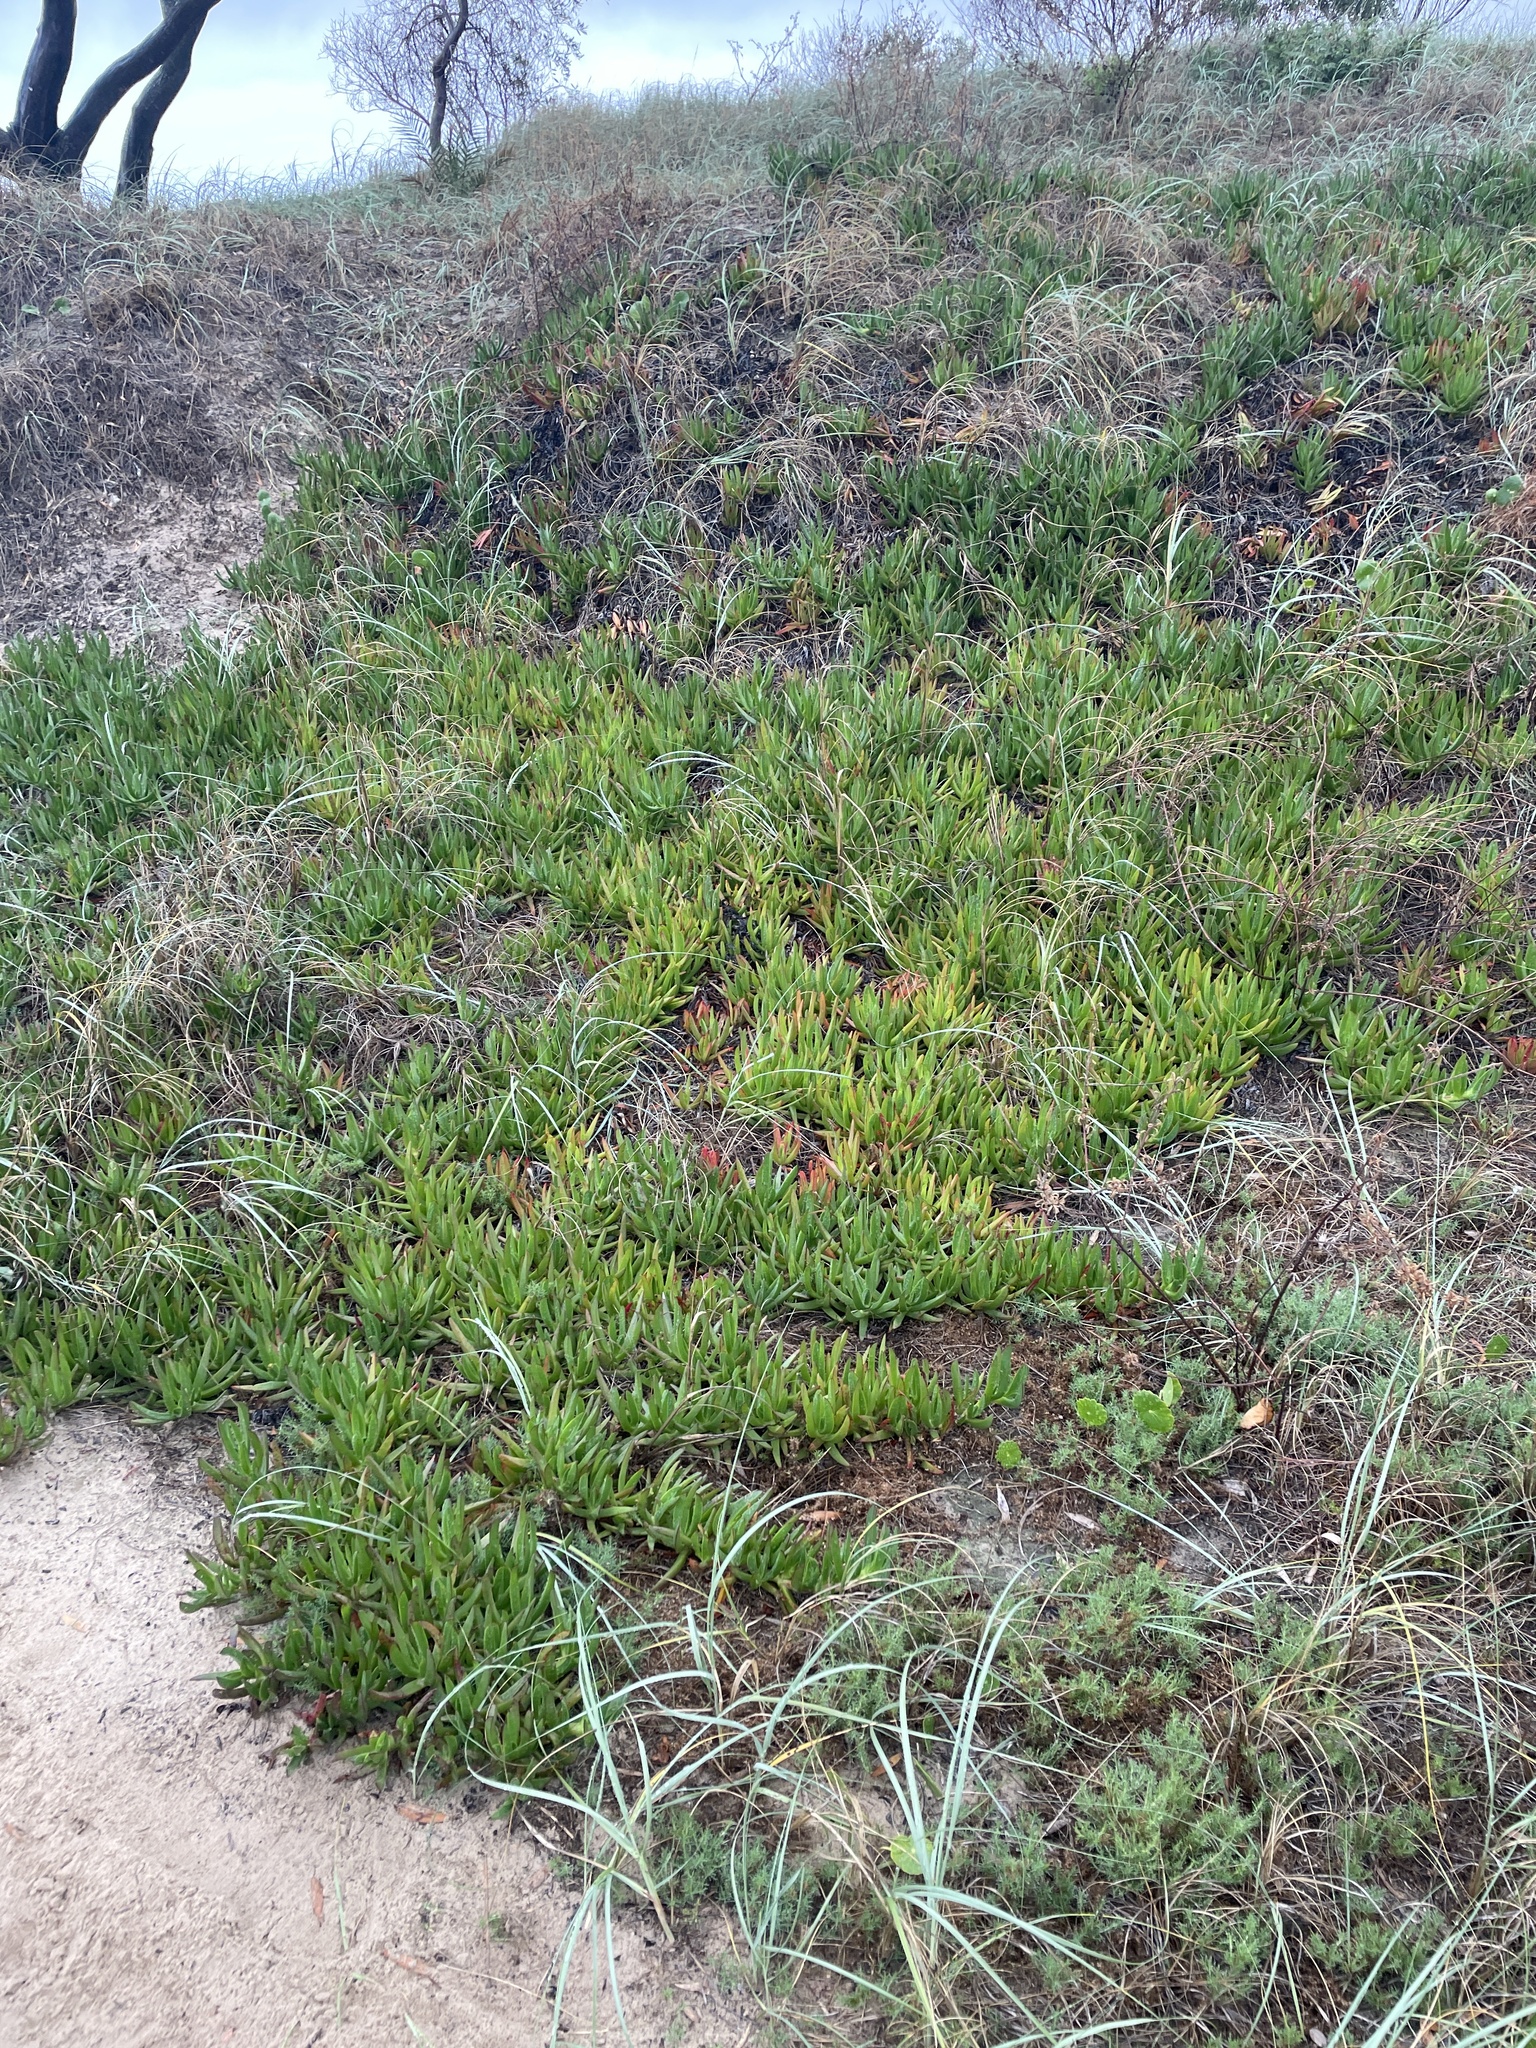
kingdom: Plantae
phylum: Tracheophyta
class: Magnoliopsida
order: Caryophyllales
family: Aizoaceae
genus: Carpobrotus
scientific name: Carpobrotus edulis
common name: Hottentot-fig
